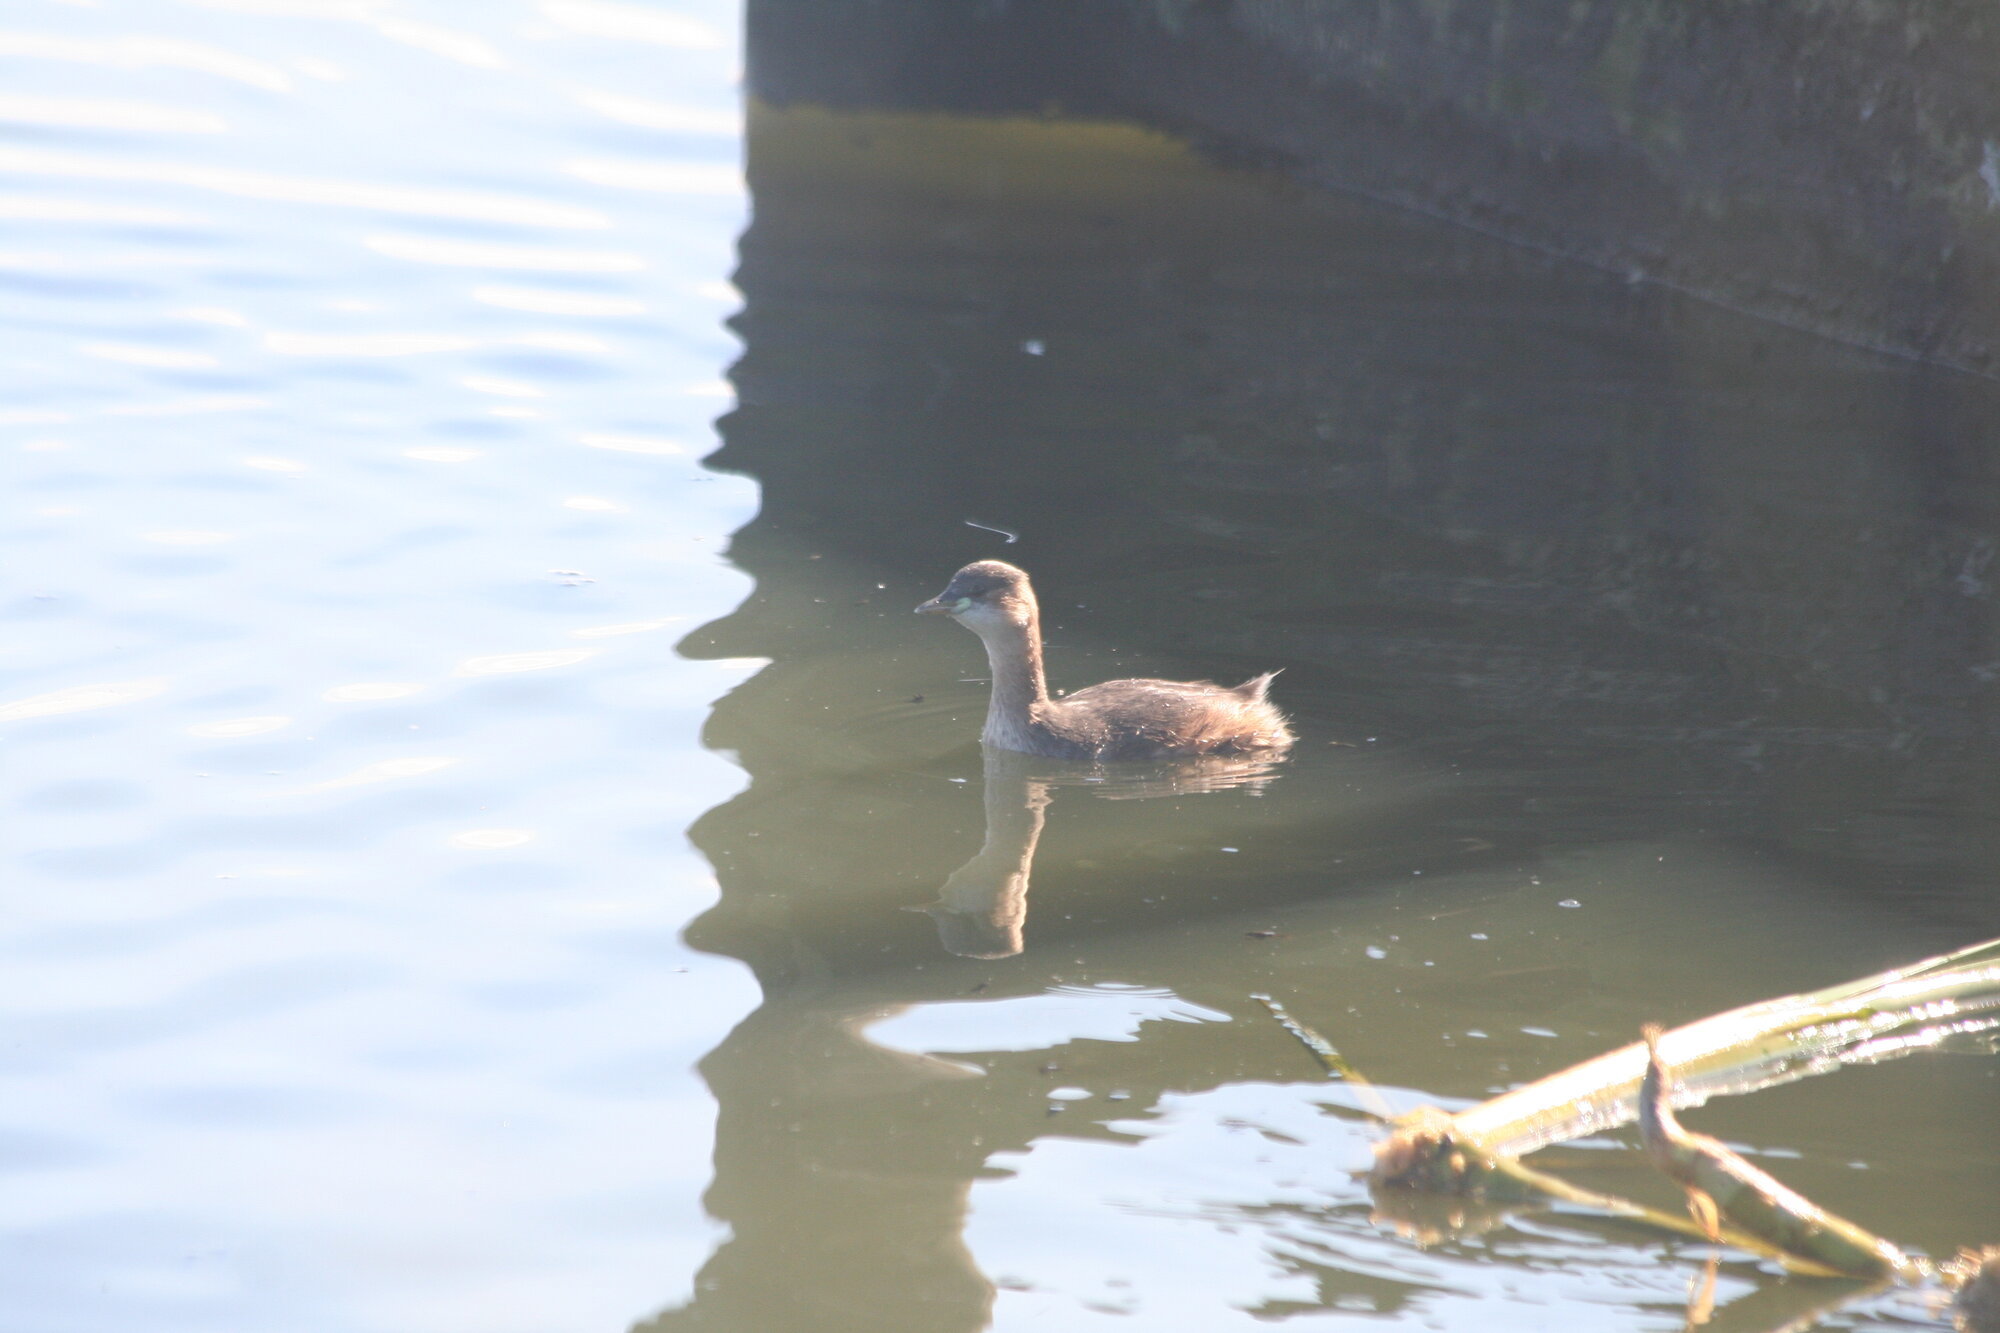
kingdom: Animalia
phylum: Chordata
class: Aves
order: Podicipediformes
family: Podicipedidae
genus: Tachybaptus
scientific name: Tachybaptus ruficollis
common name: Little grebe
